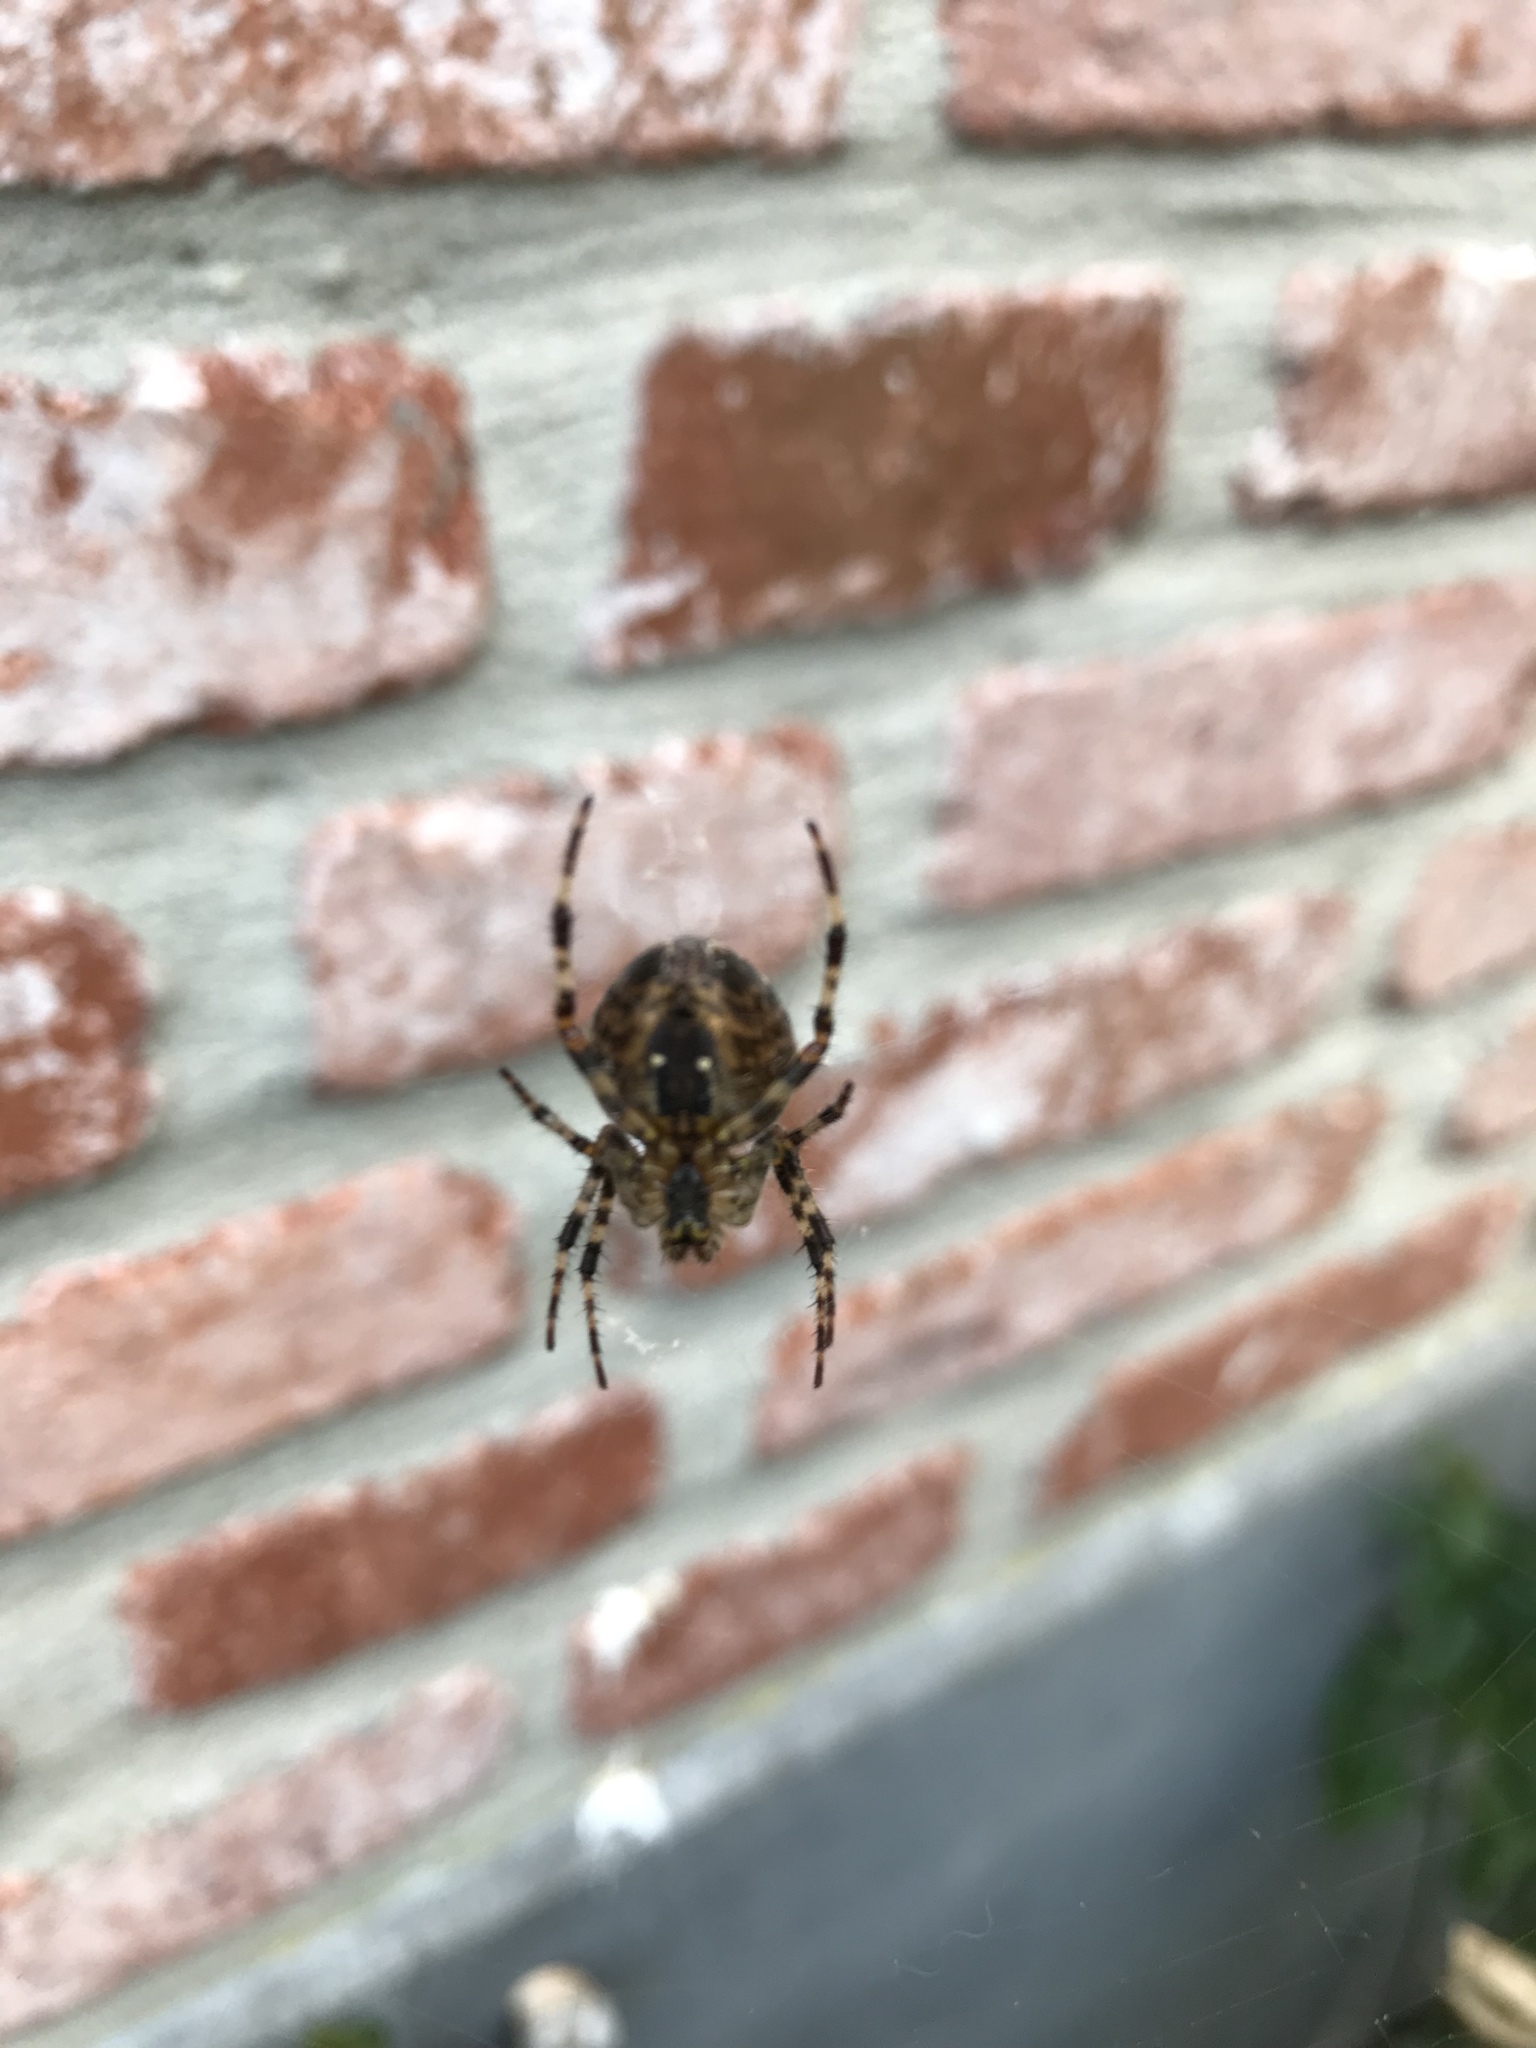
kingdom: Animalia
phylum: Arthropoda
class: Arachnida
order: Araneae
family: Araneidae
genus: Araneus
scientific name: Araneus diadematus
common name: Cross orbweaver
